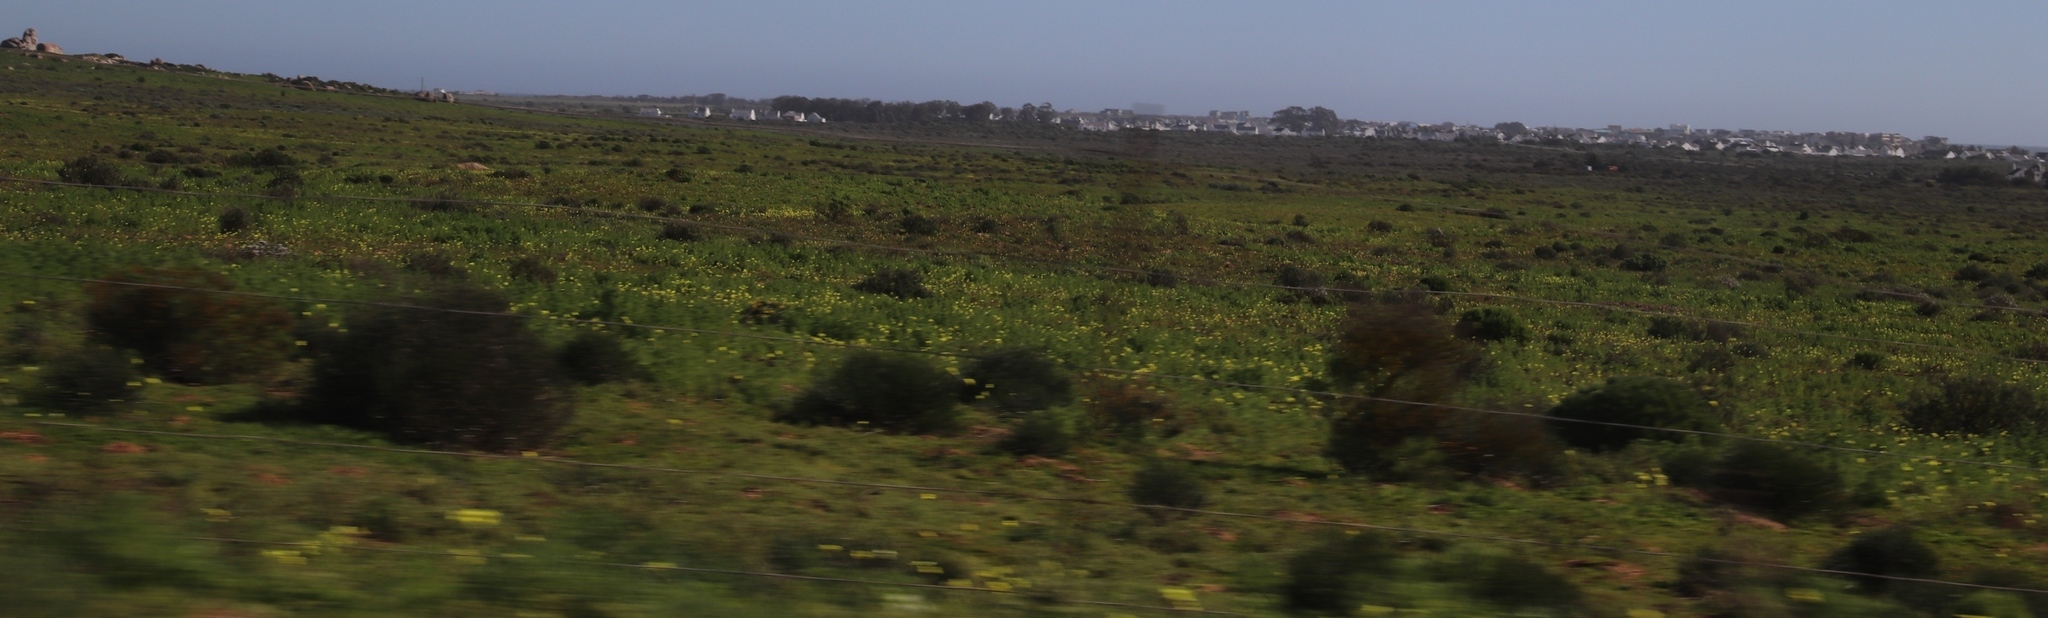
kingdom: Plantae
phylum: Tracheophyta
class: Magnoliopsida
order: Oxalidales
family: Oxalidaceae
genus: Oxalis
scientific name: Oxalis pes-caprae
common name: Bermuda-buttercup
